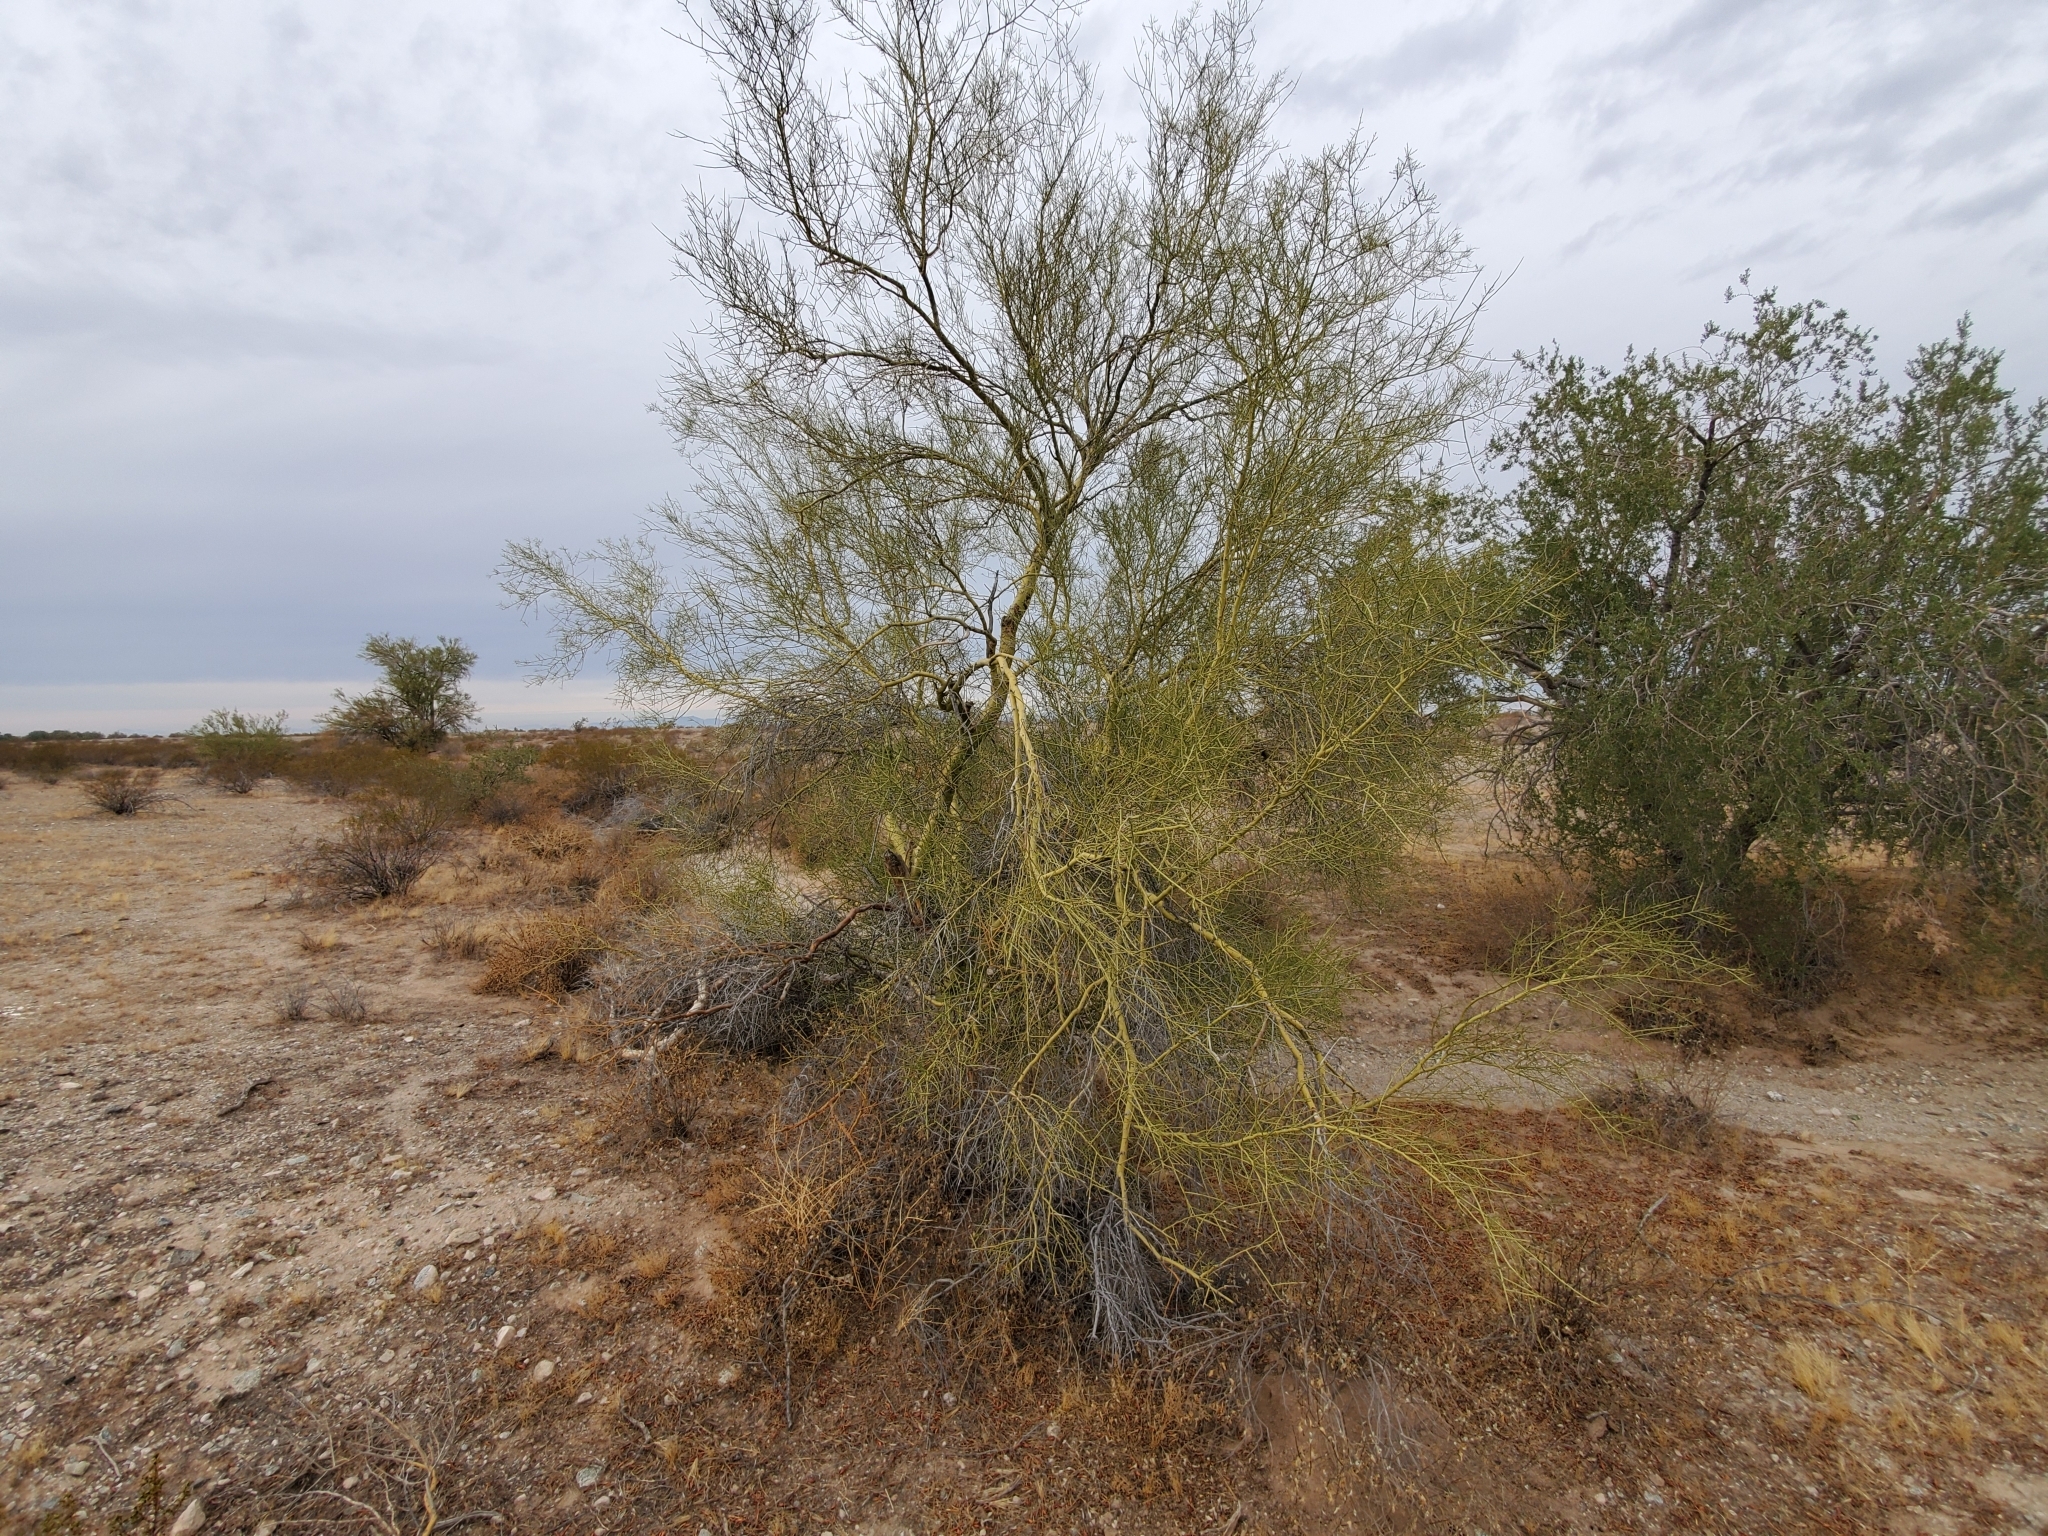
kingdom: Plantae
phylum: Tracheophyta
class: Magnoliopsida
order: Fabales
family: Fabaceae
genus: Parkinsonia
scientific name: Parkinsonia microphylla
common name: Yellow paloverde
